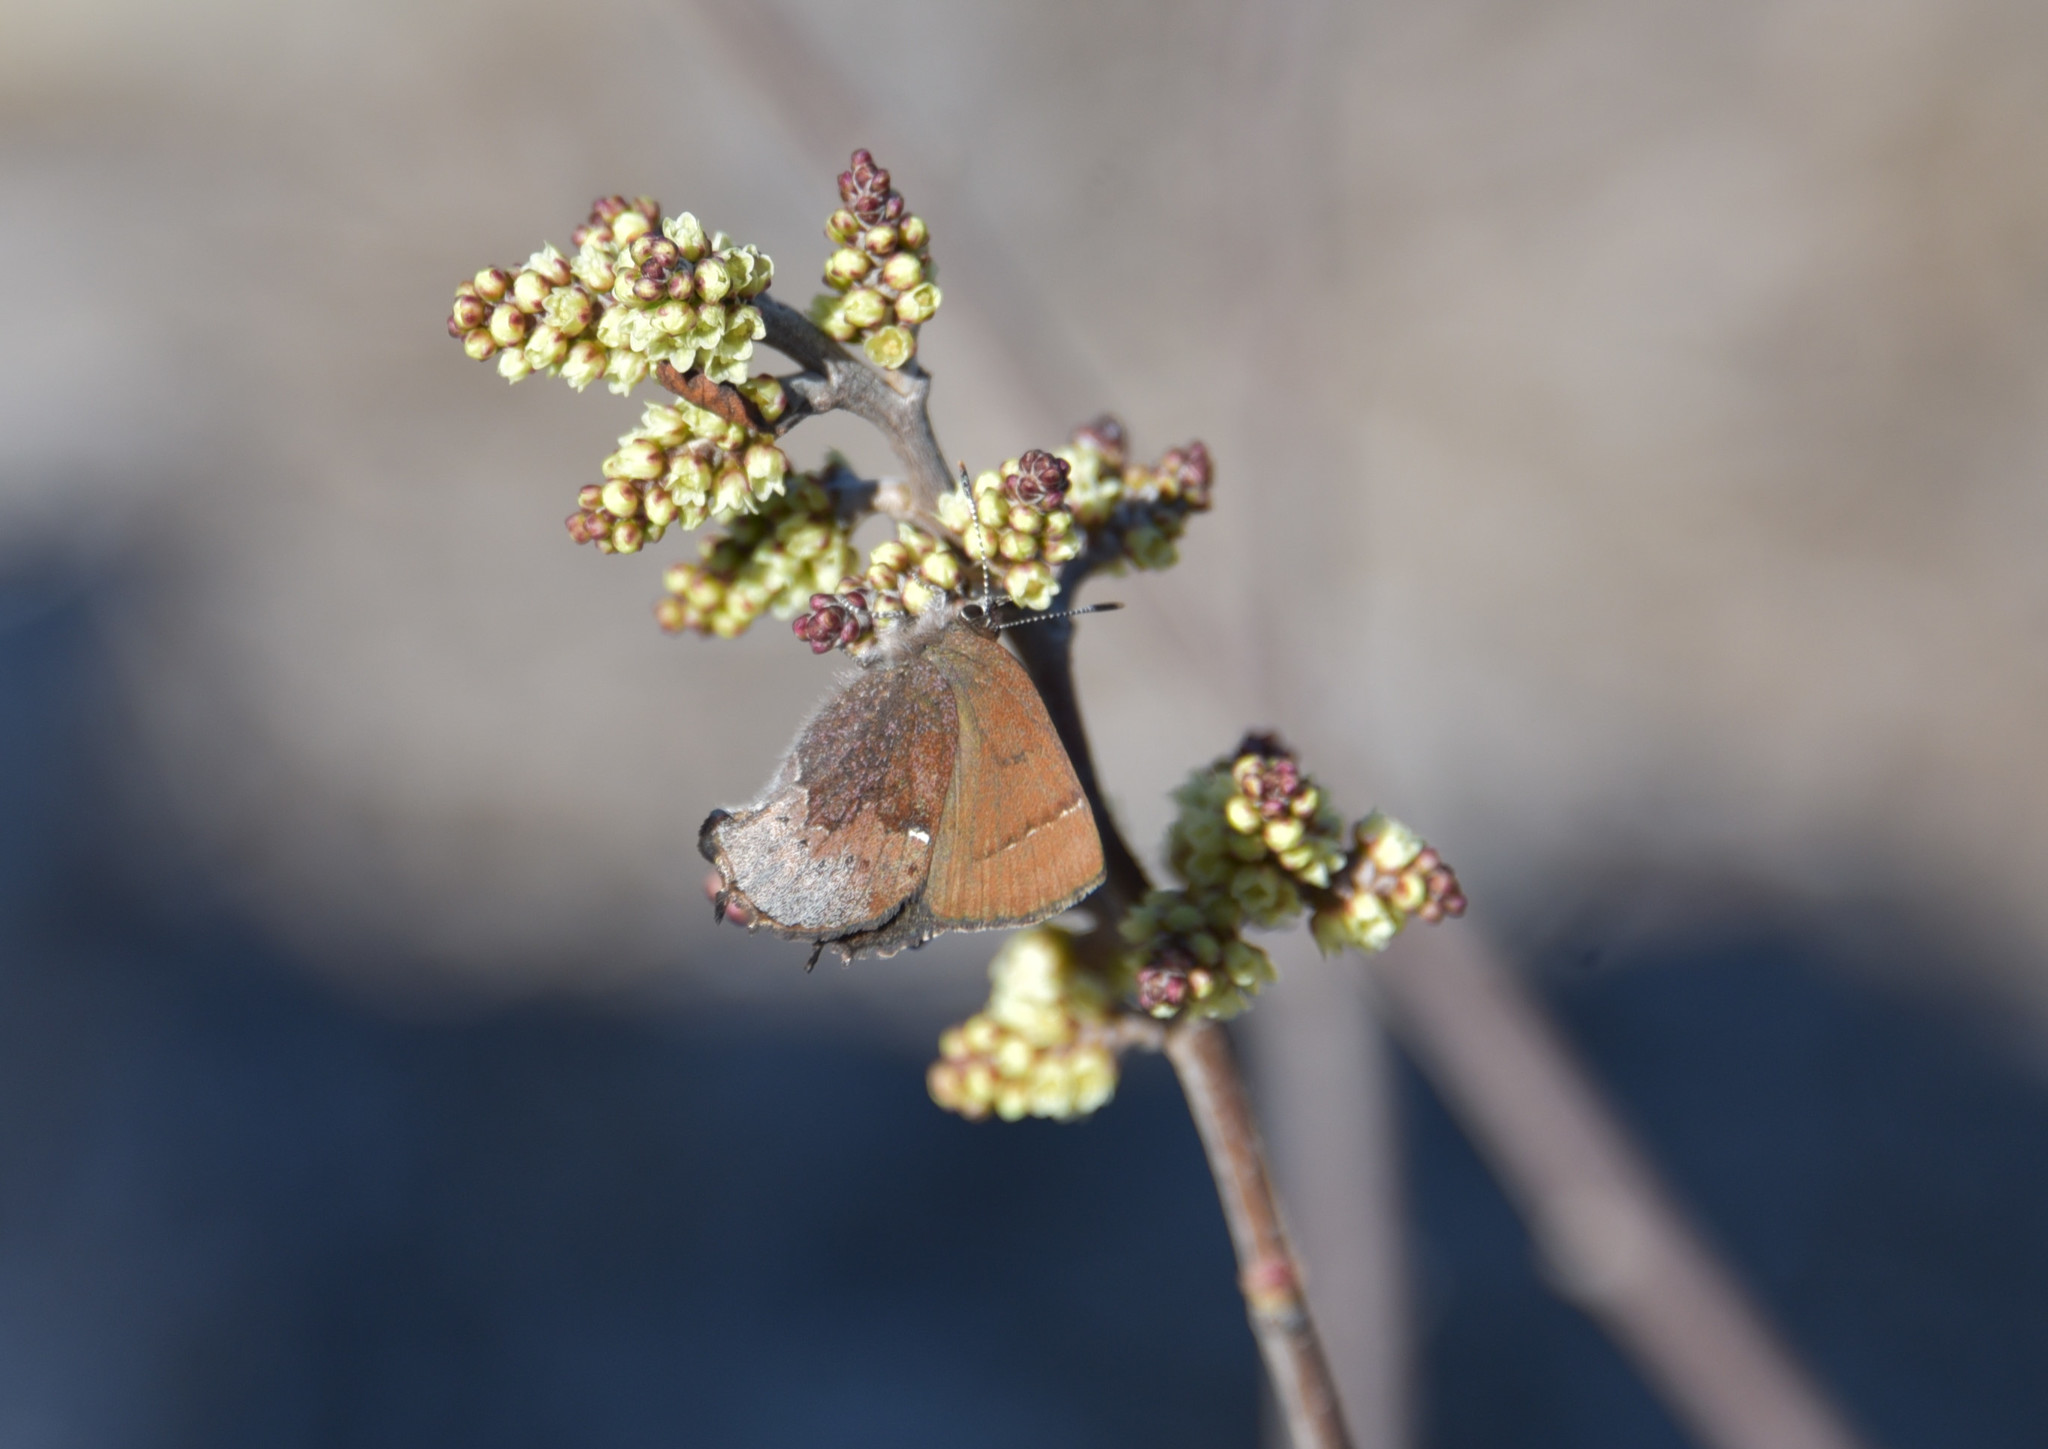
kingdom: Animalia
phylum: Arthropoda
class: Insecta
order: Lepidoptera
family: Lycaenidae
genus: Incisalia
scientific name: Incisalia henrici
